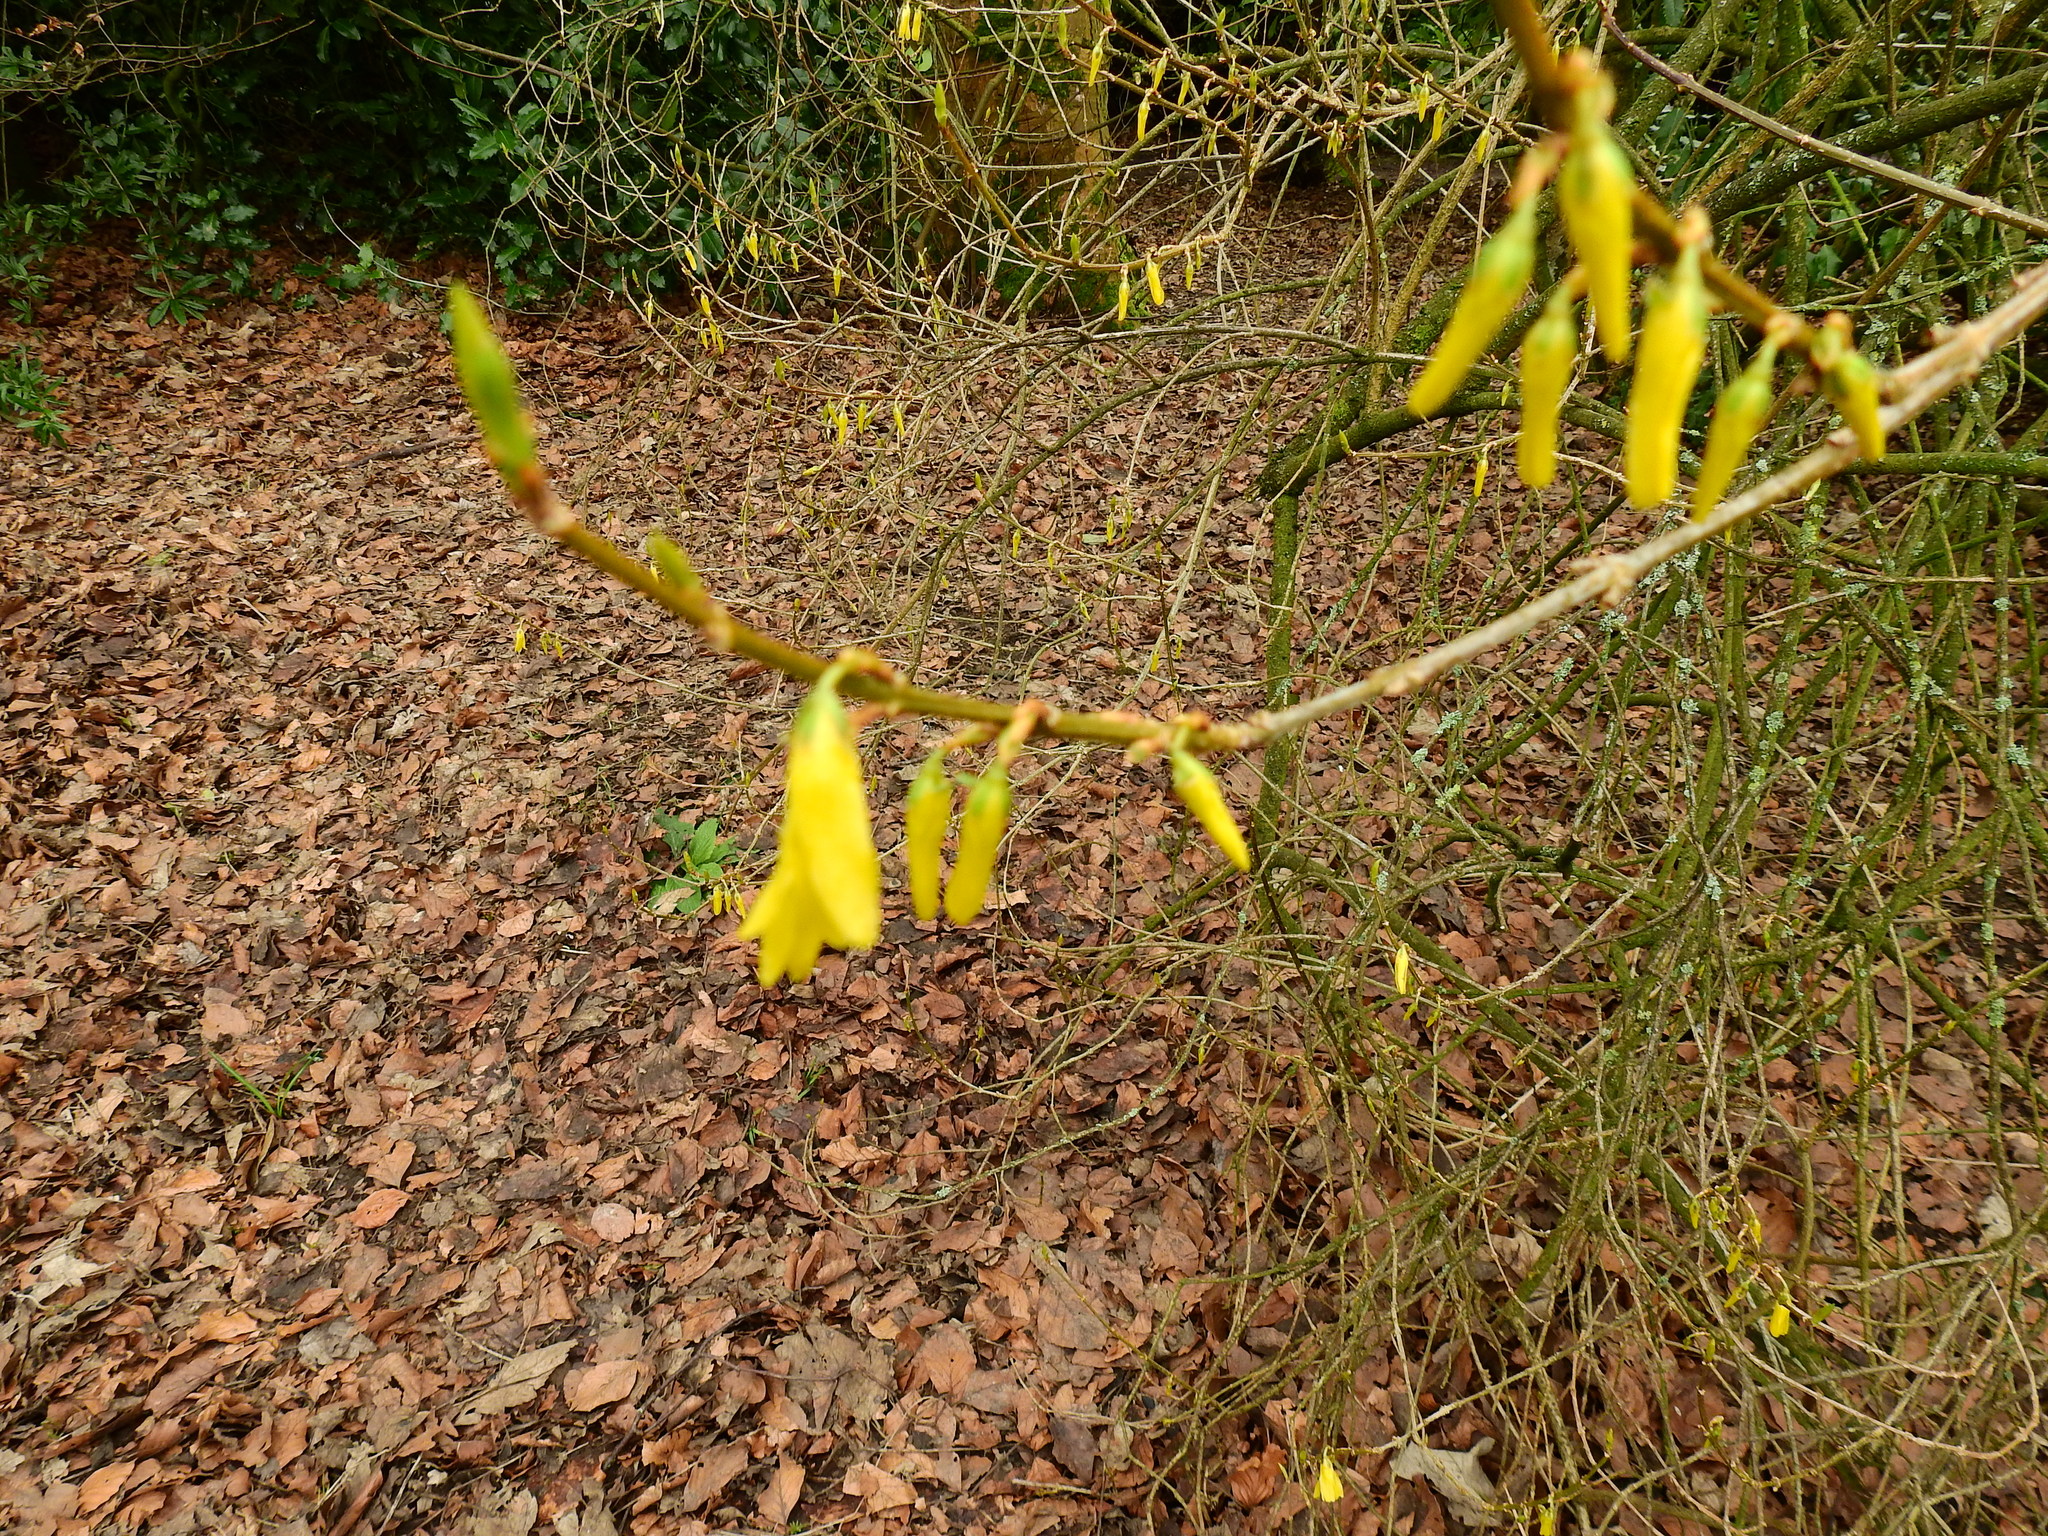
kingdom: Plantae
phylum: Tracheophyta
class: Magnoliopsida
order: Lamiales
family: Oleaceae
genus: Forsythia
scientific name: Forsythia intermedia
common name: Forsythia
